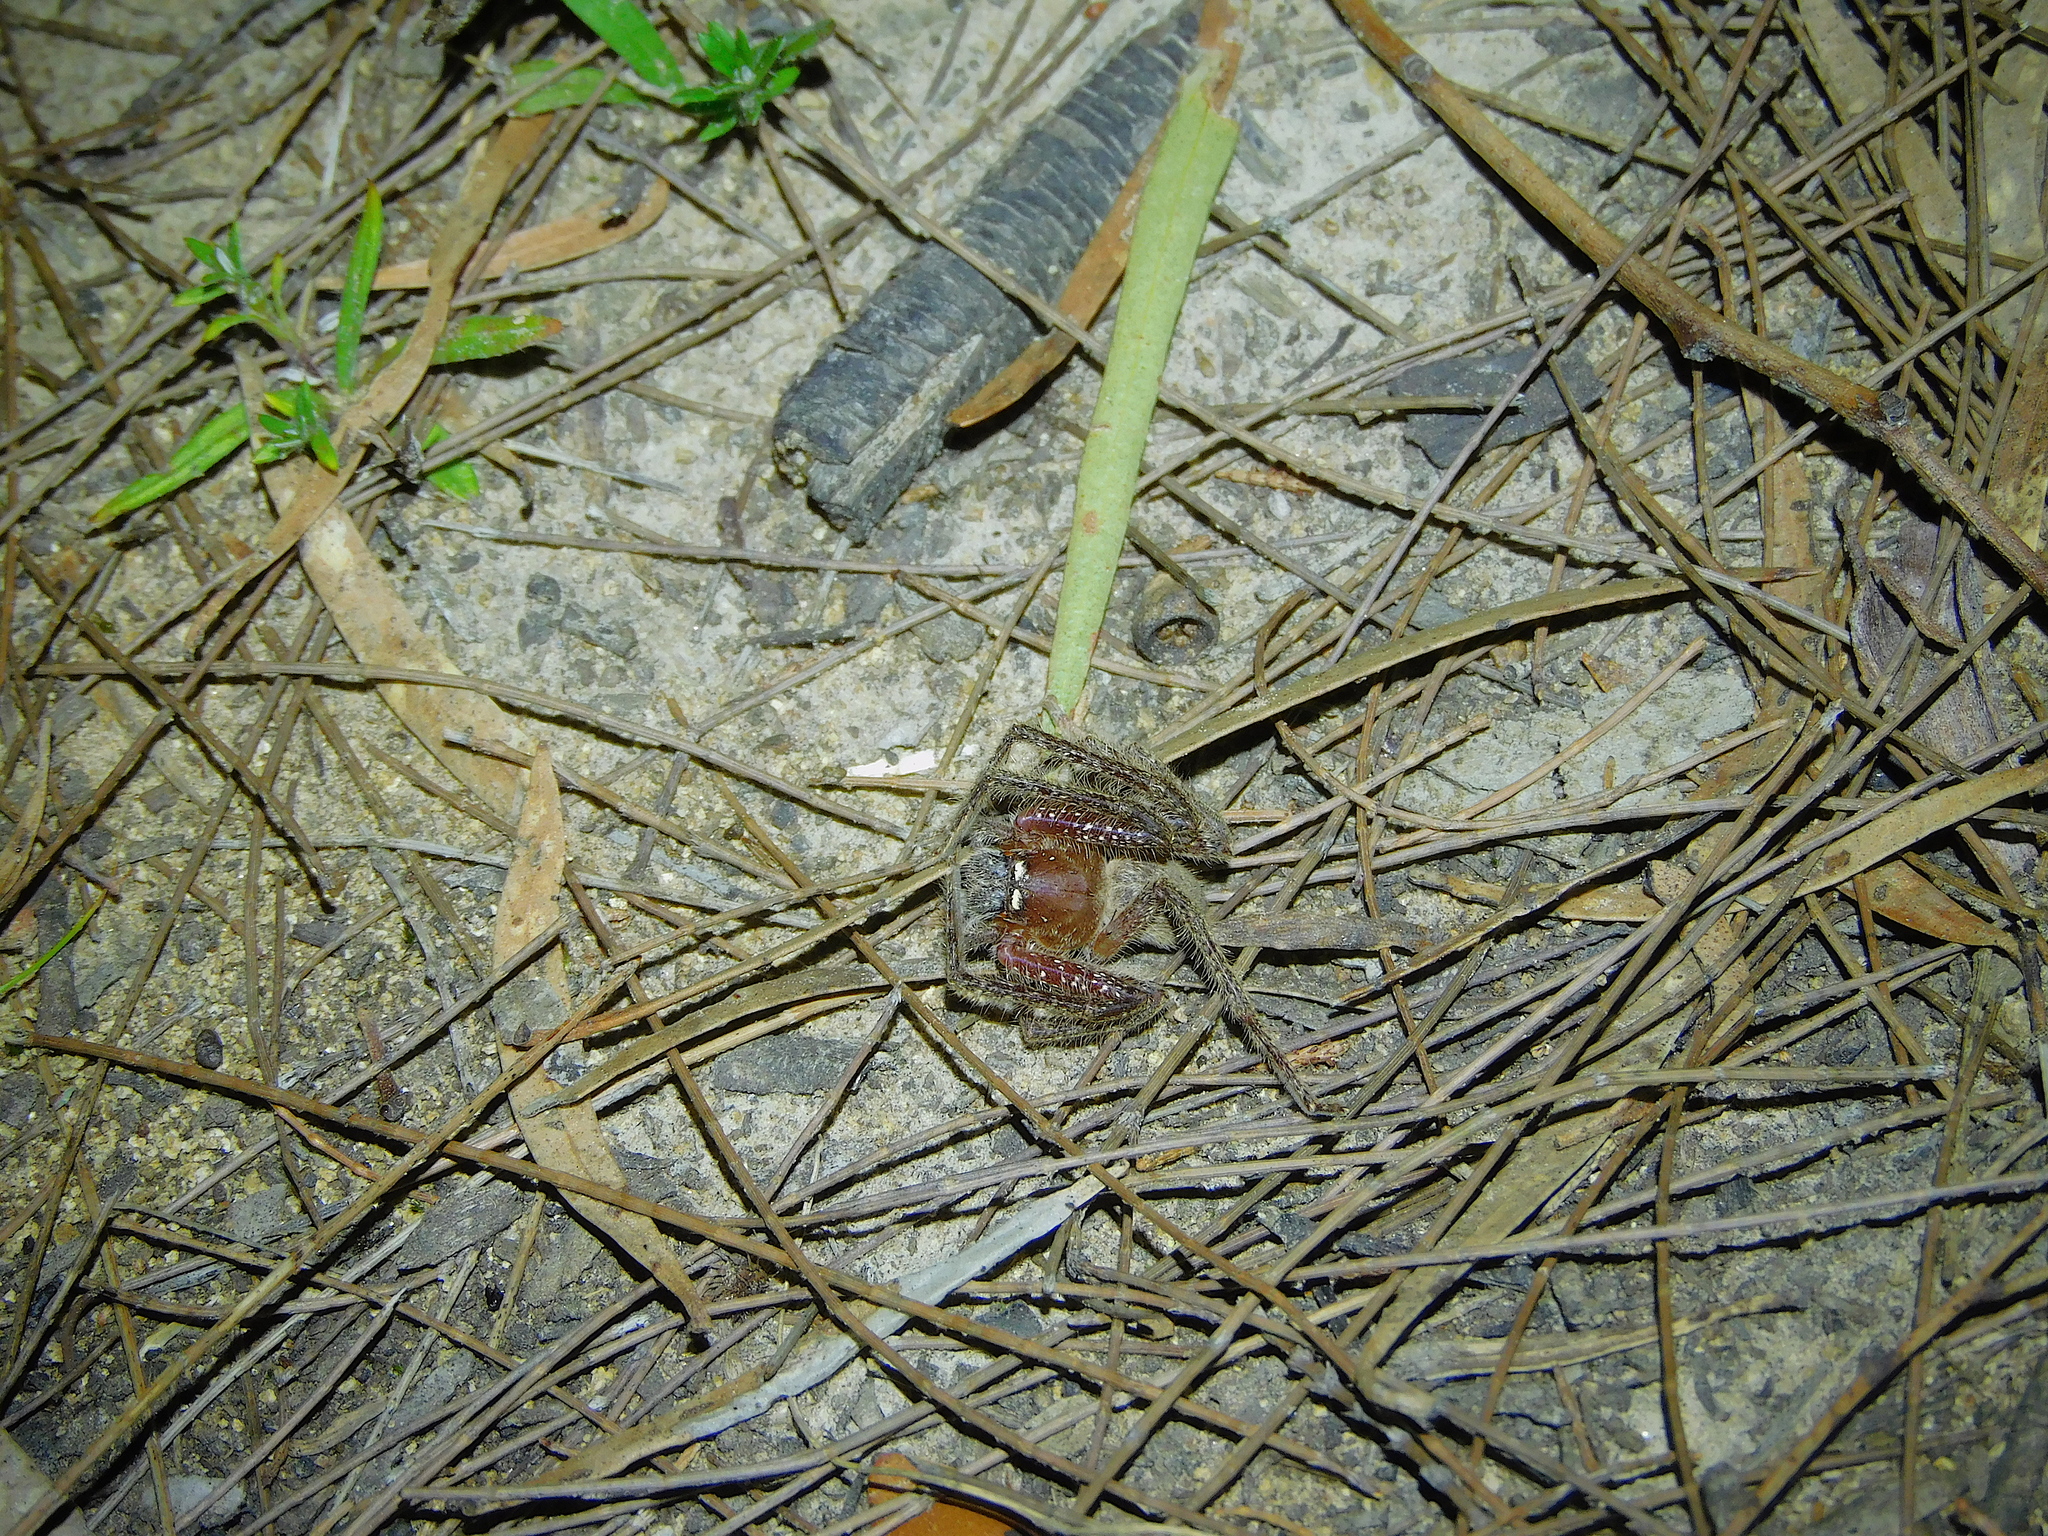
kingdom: Animalia
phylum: Arthropoda
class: Arachnida
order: Araneae
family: Sparassidae
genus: Neosparassus
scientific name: Neosparassus diana
